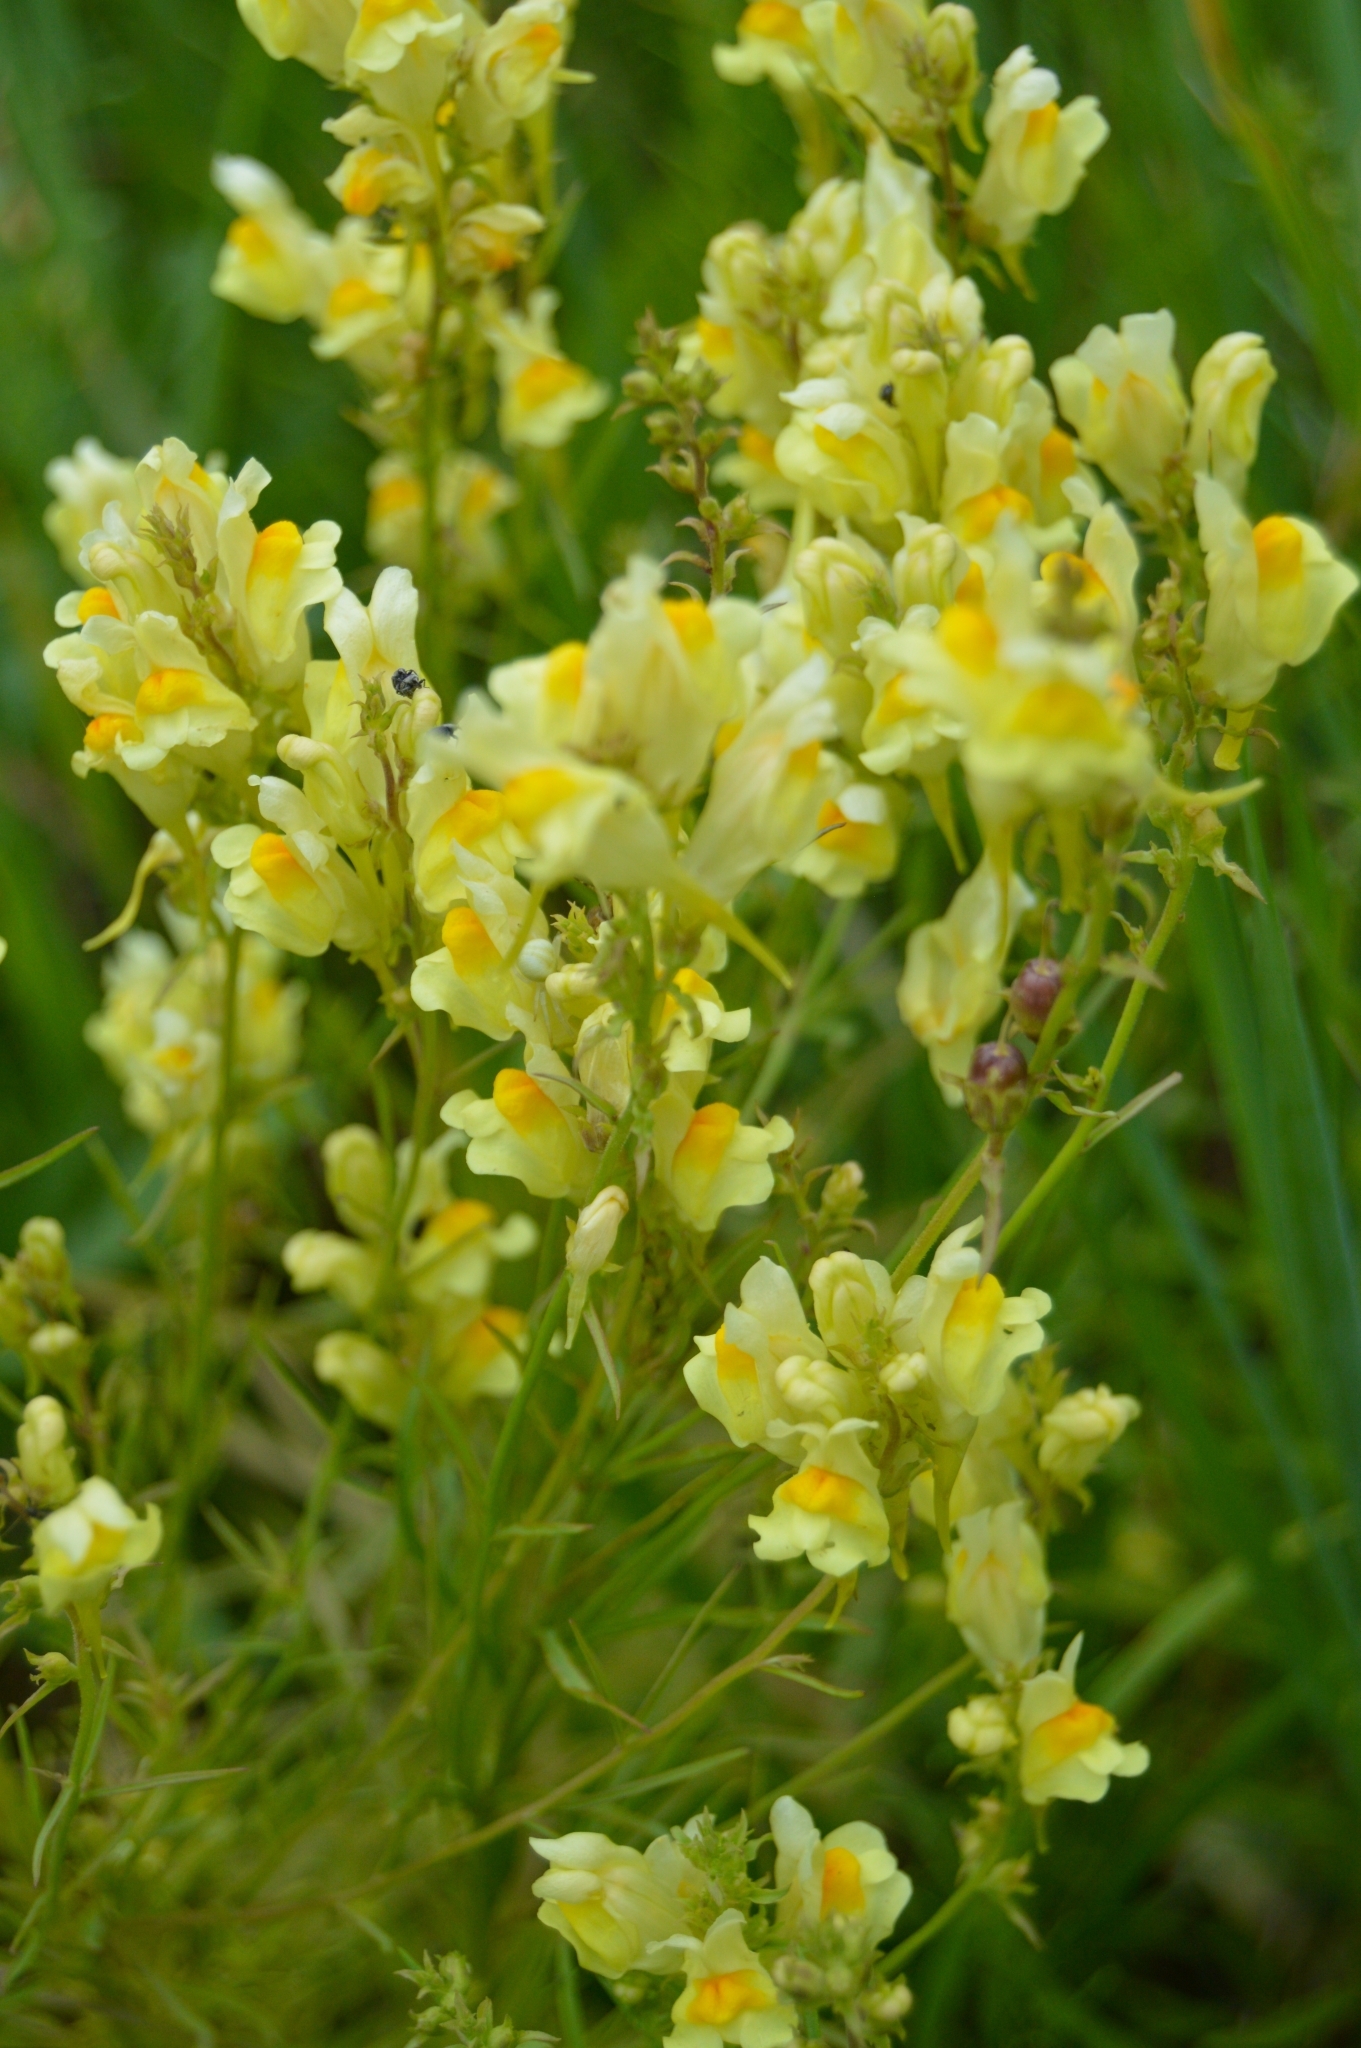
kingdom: Plantae
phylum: Tracheophyta
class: Magnoliopsida
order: Lamiales
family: Plantaginaceae
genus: Linaria
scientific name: Linaria vulgaris
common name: Butter and eggs
